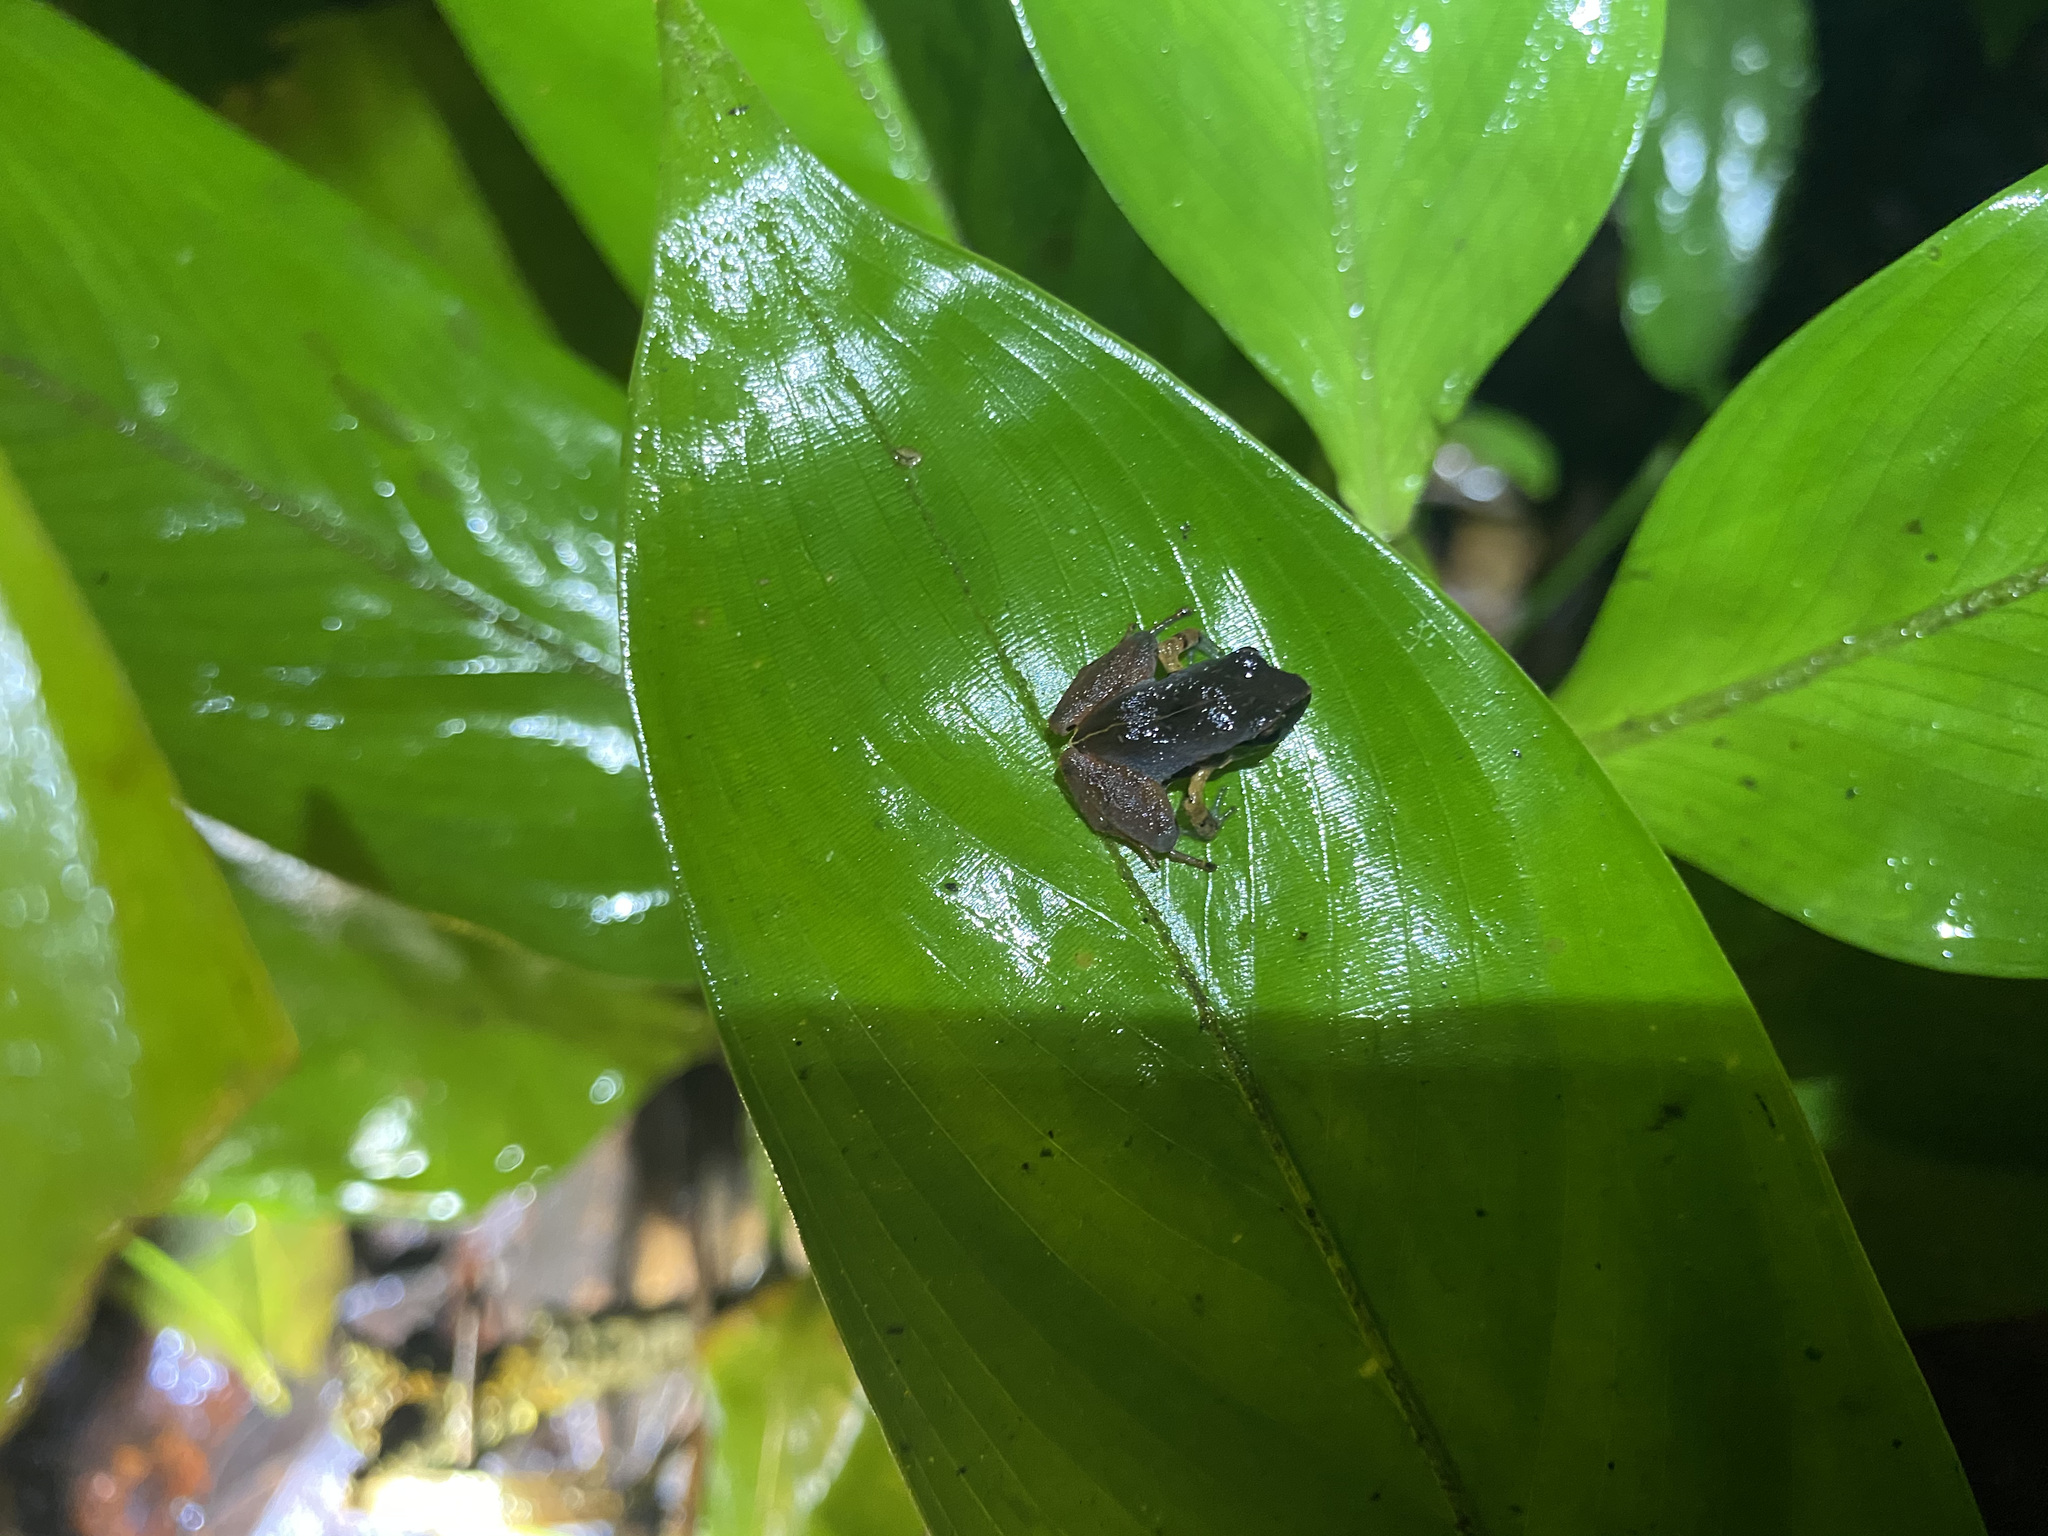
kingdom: Animalia
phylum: Chordata
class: Amphibia
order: Anura
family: Craugastoridae
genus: Craugastor
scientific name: Craugastor podiciferus
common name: Cerro utyum robber frog
